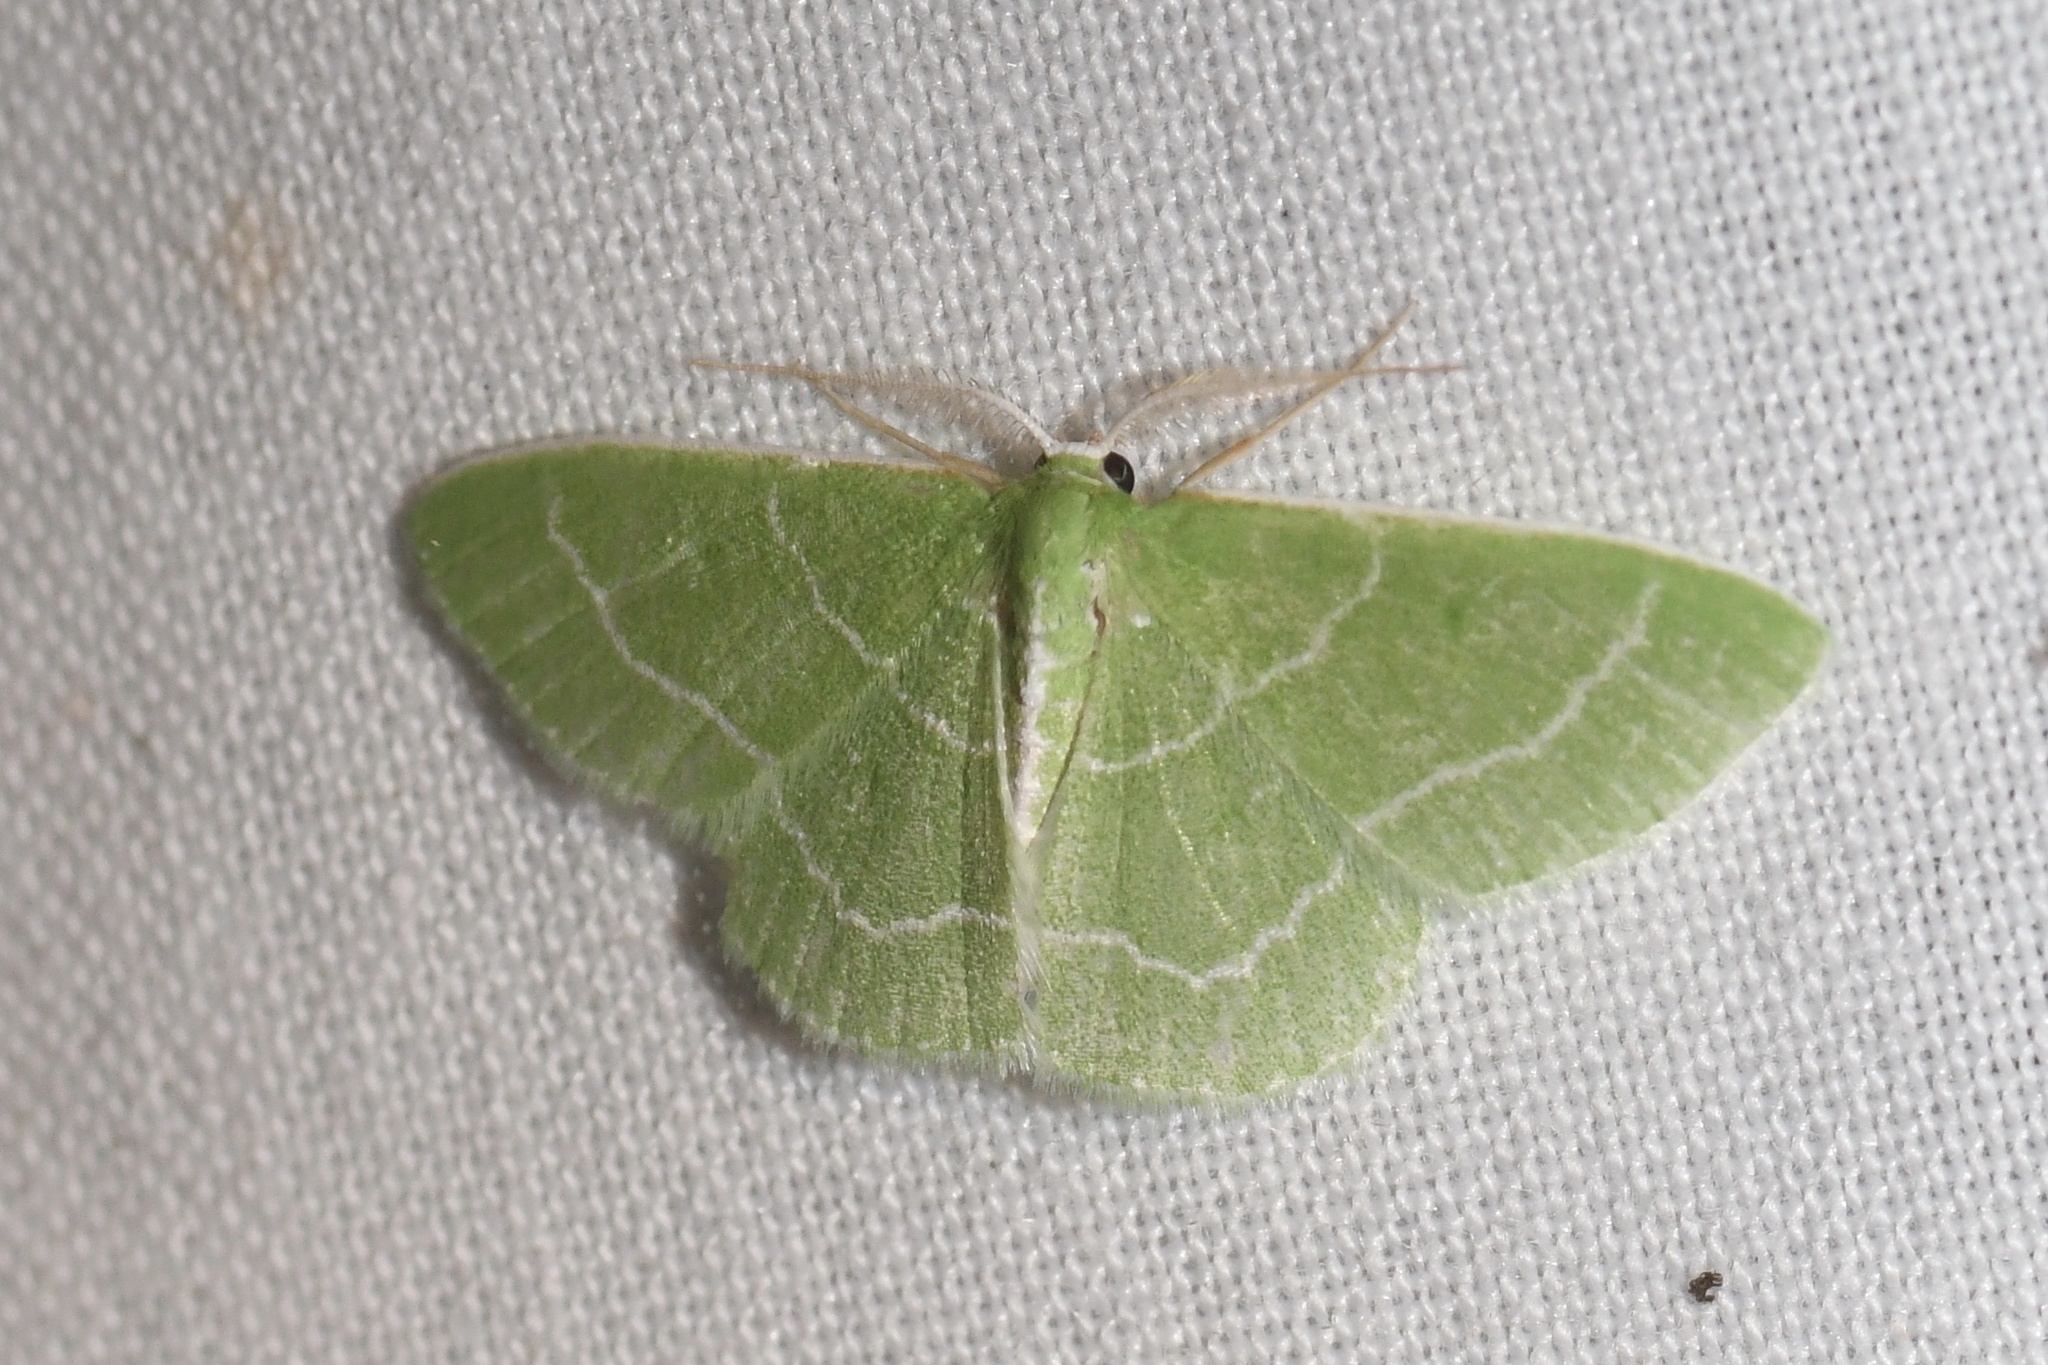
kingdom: Animalia
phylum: Arthropoda
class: Insecta
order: Lepidoptera
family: Geometridae
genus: Synchlora
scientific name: Synchlora aerata
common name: Wavy-lined emerald
